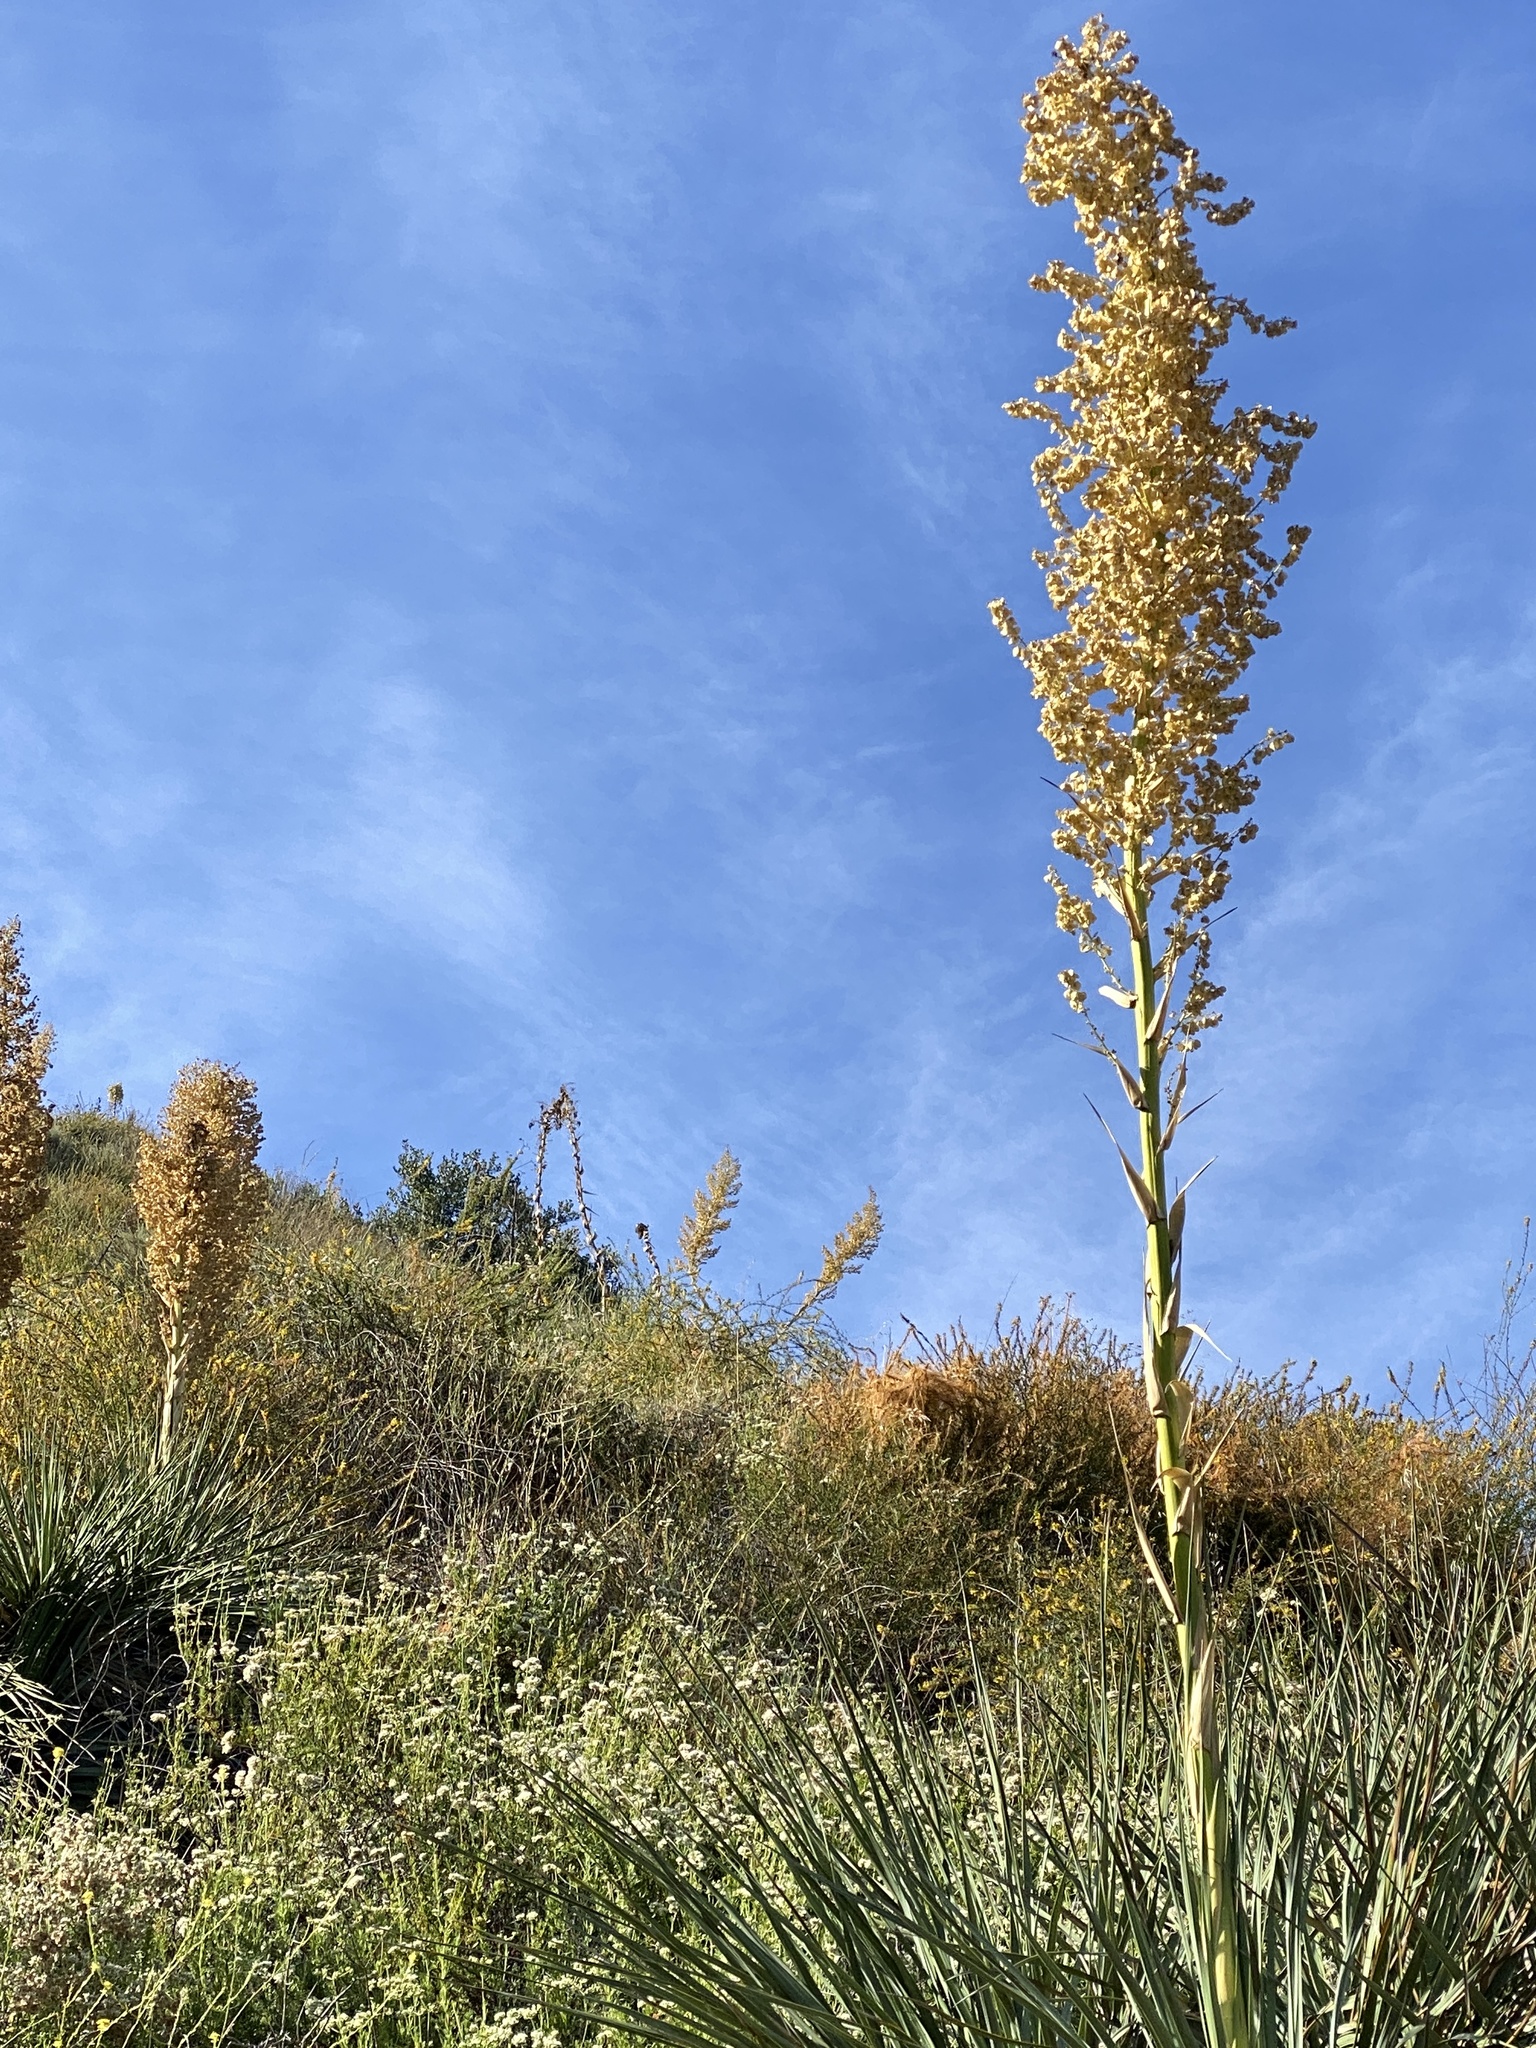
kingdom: Plantae
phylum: Tracheophyta
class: Liliopsida
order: Asparagales
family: Asparagaceae
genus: Nolina
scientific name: Nolina cismontana
